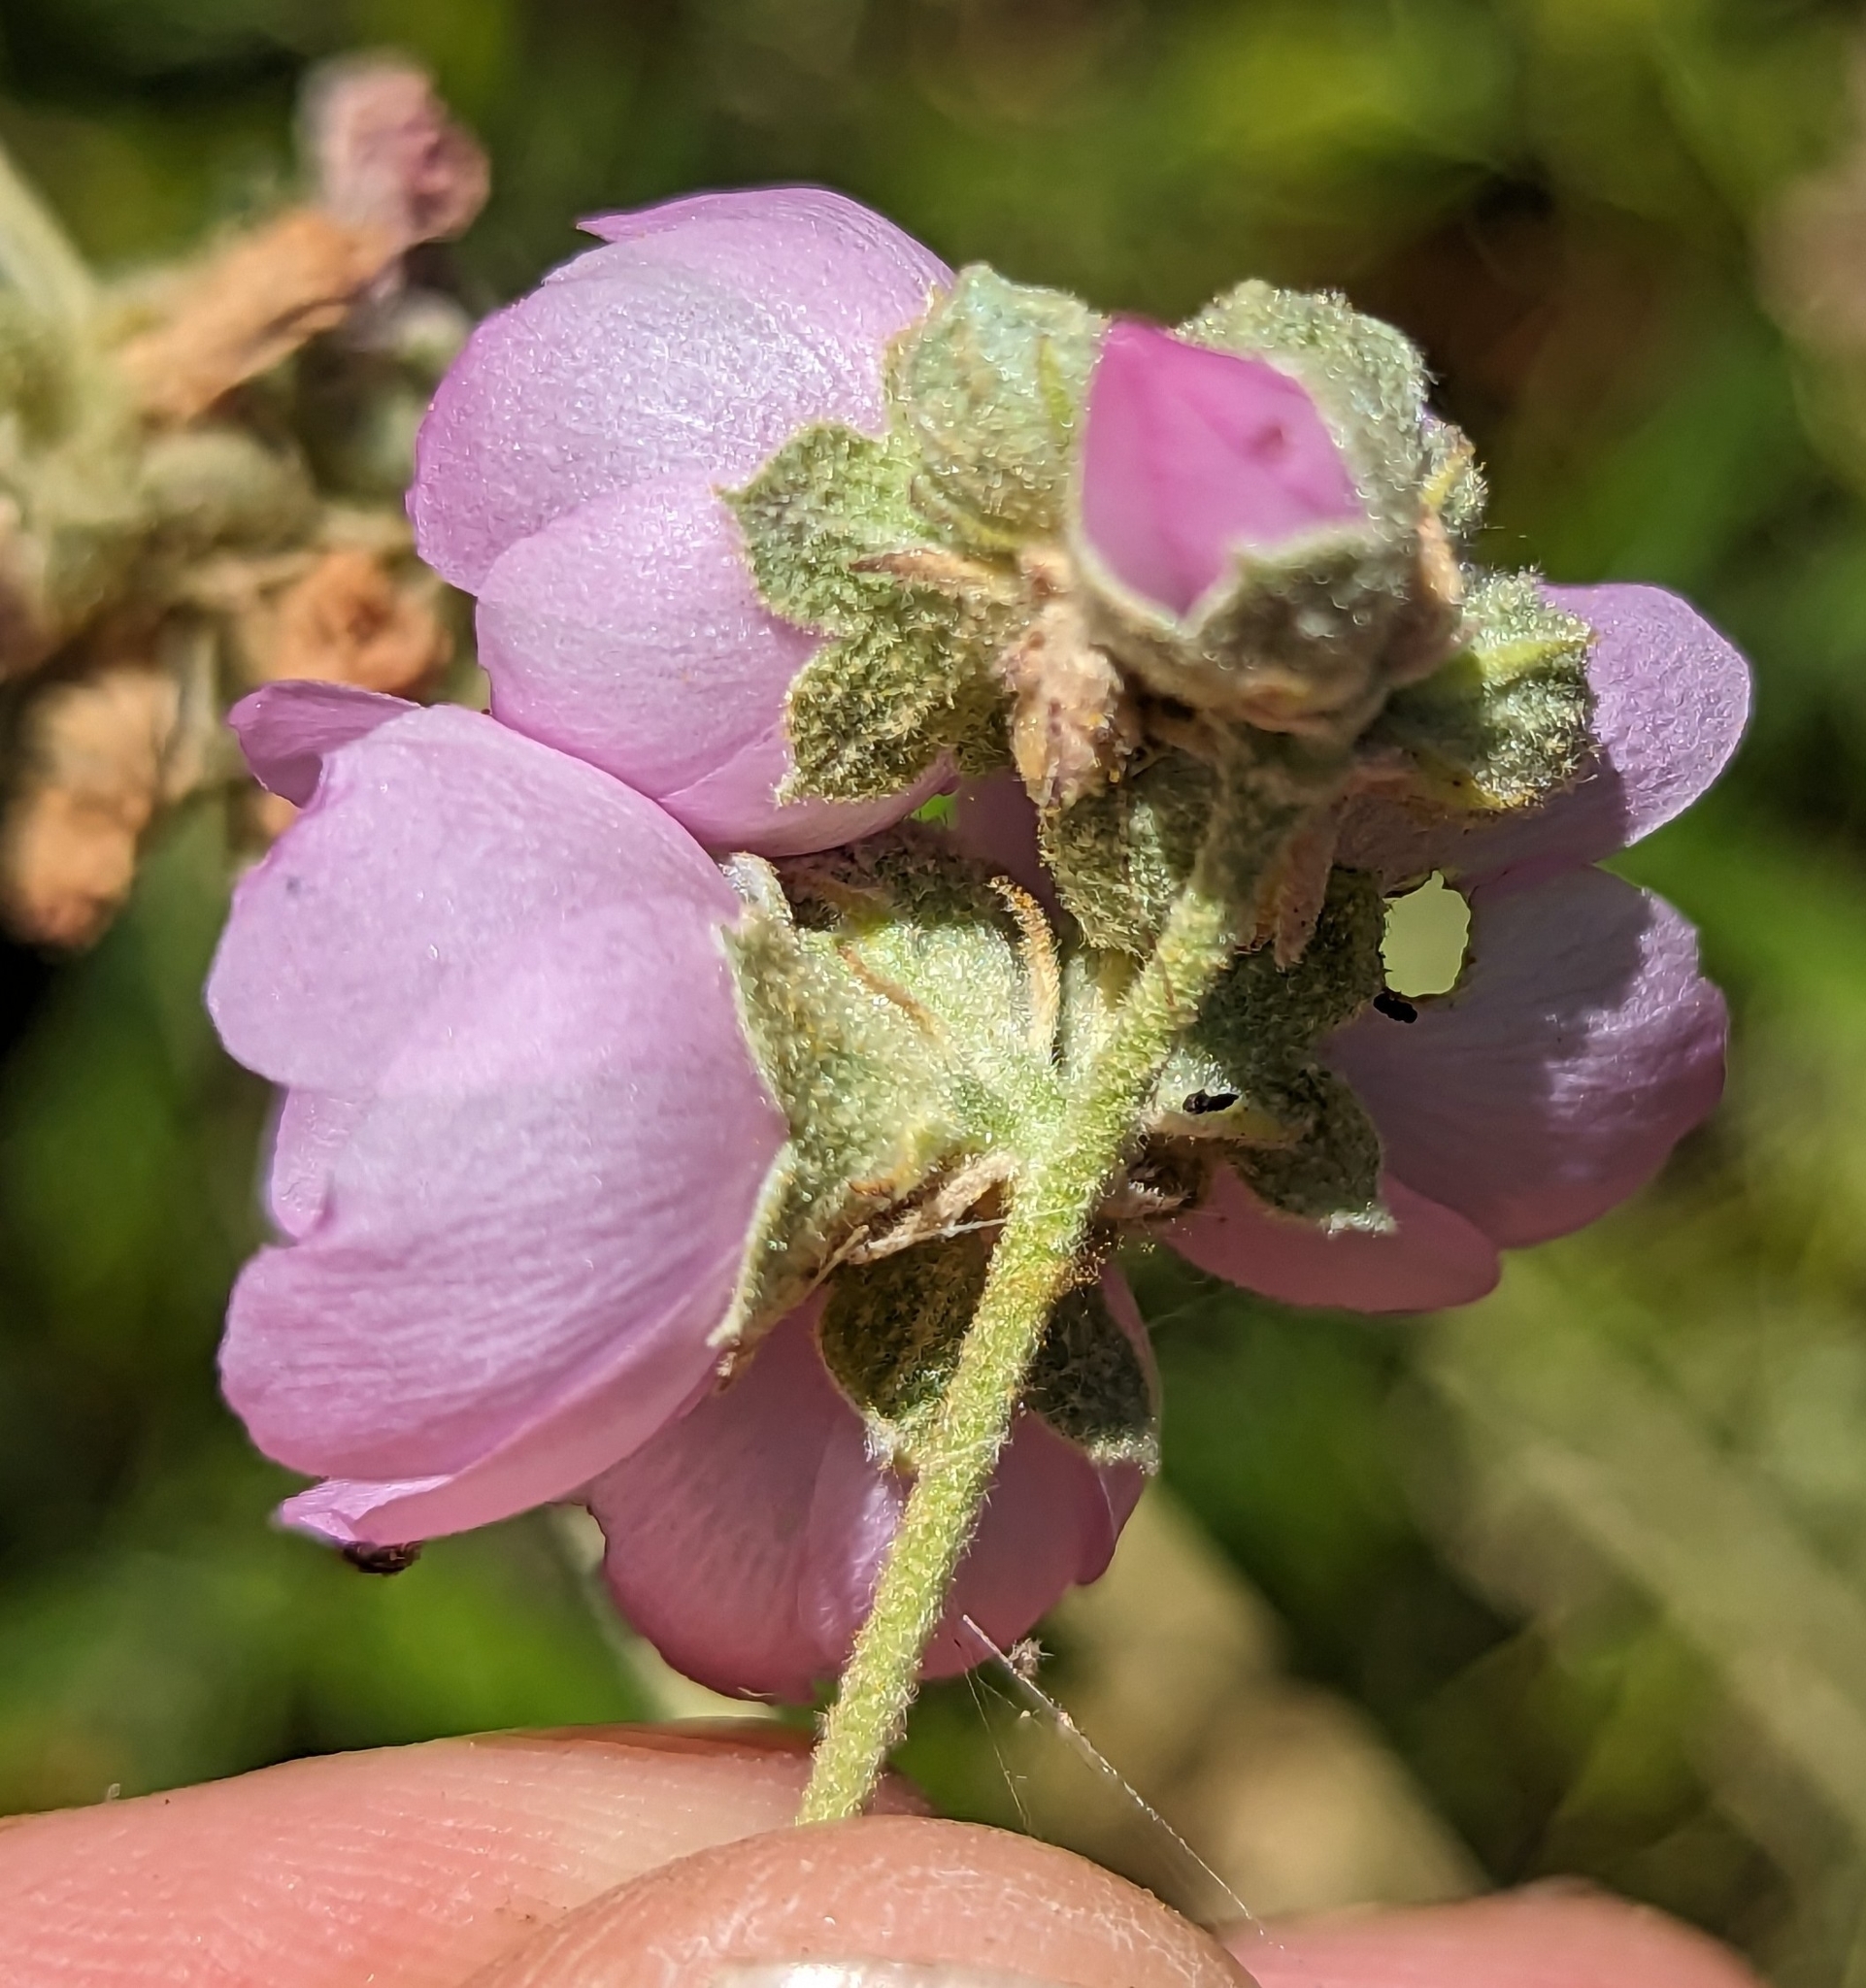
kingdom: Plantae
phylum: Tracheophyta
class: Magnoliopsida
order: Malvales
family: Malvaceae
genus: Malacothamnus
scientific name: Malacothamnus fasciculatus
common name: Sant cruz island bush-mallow
